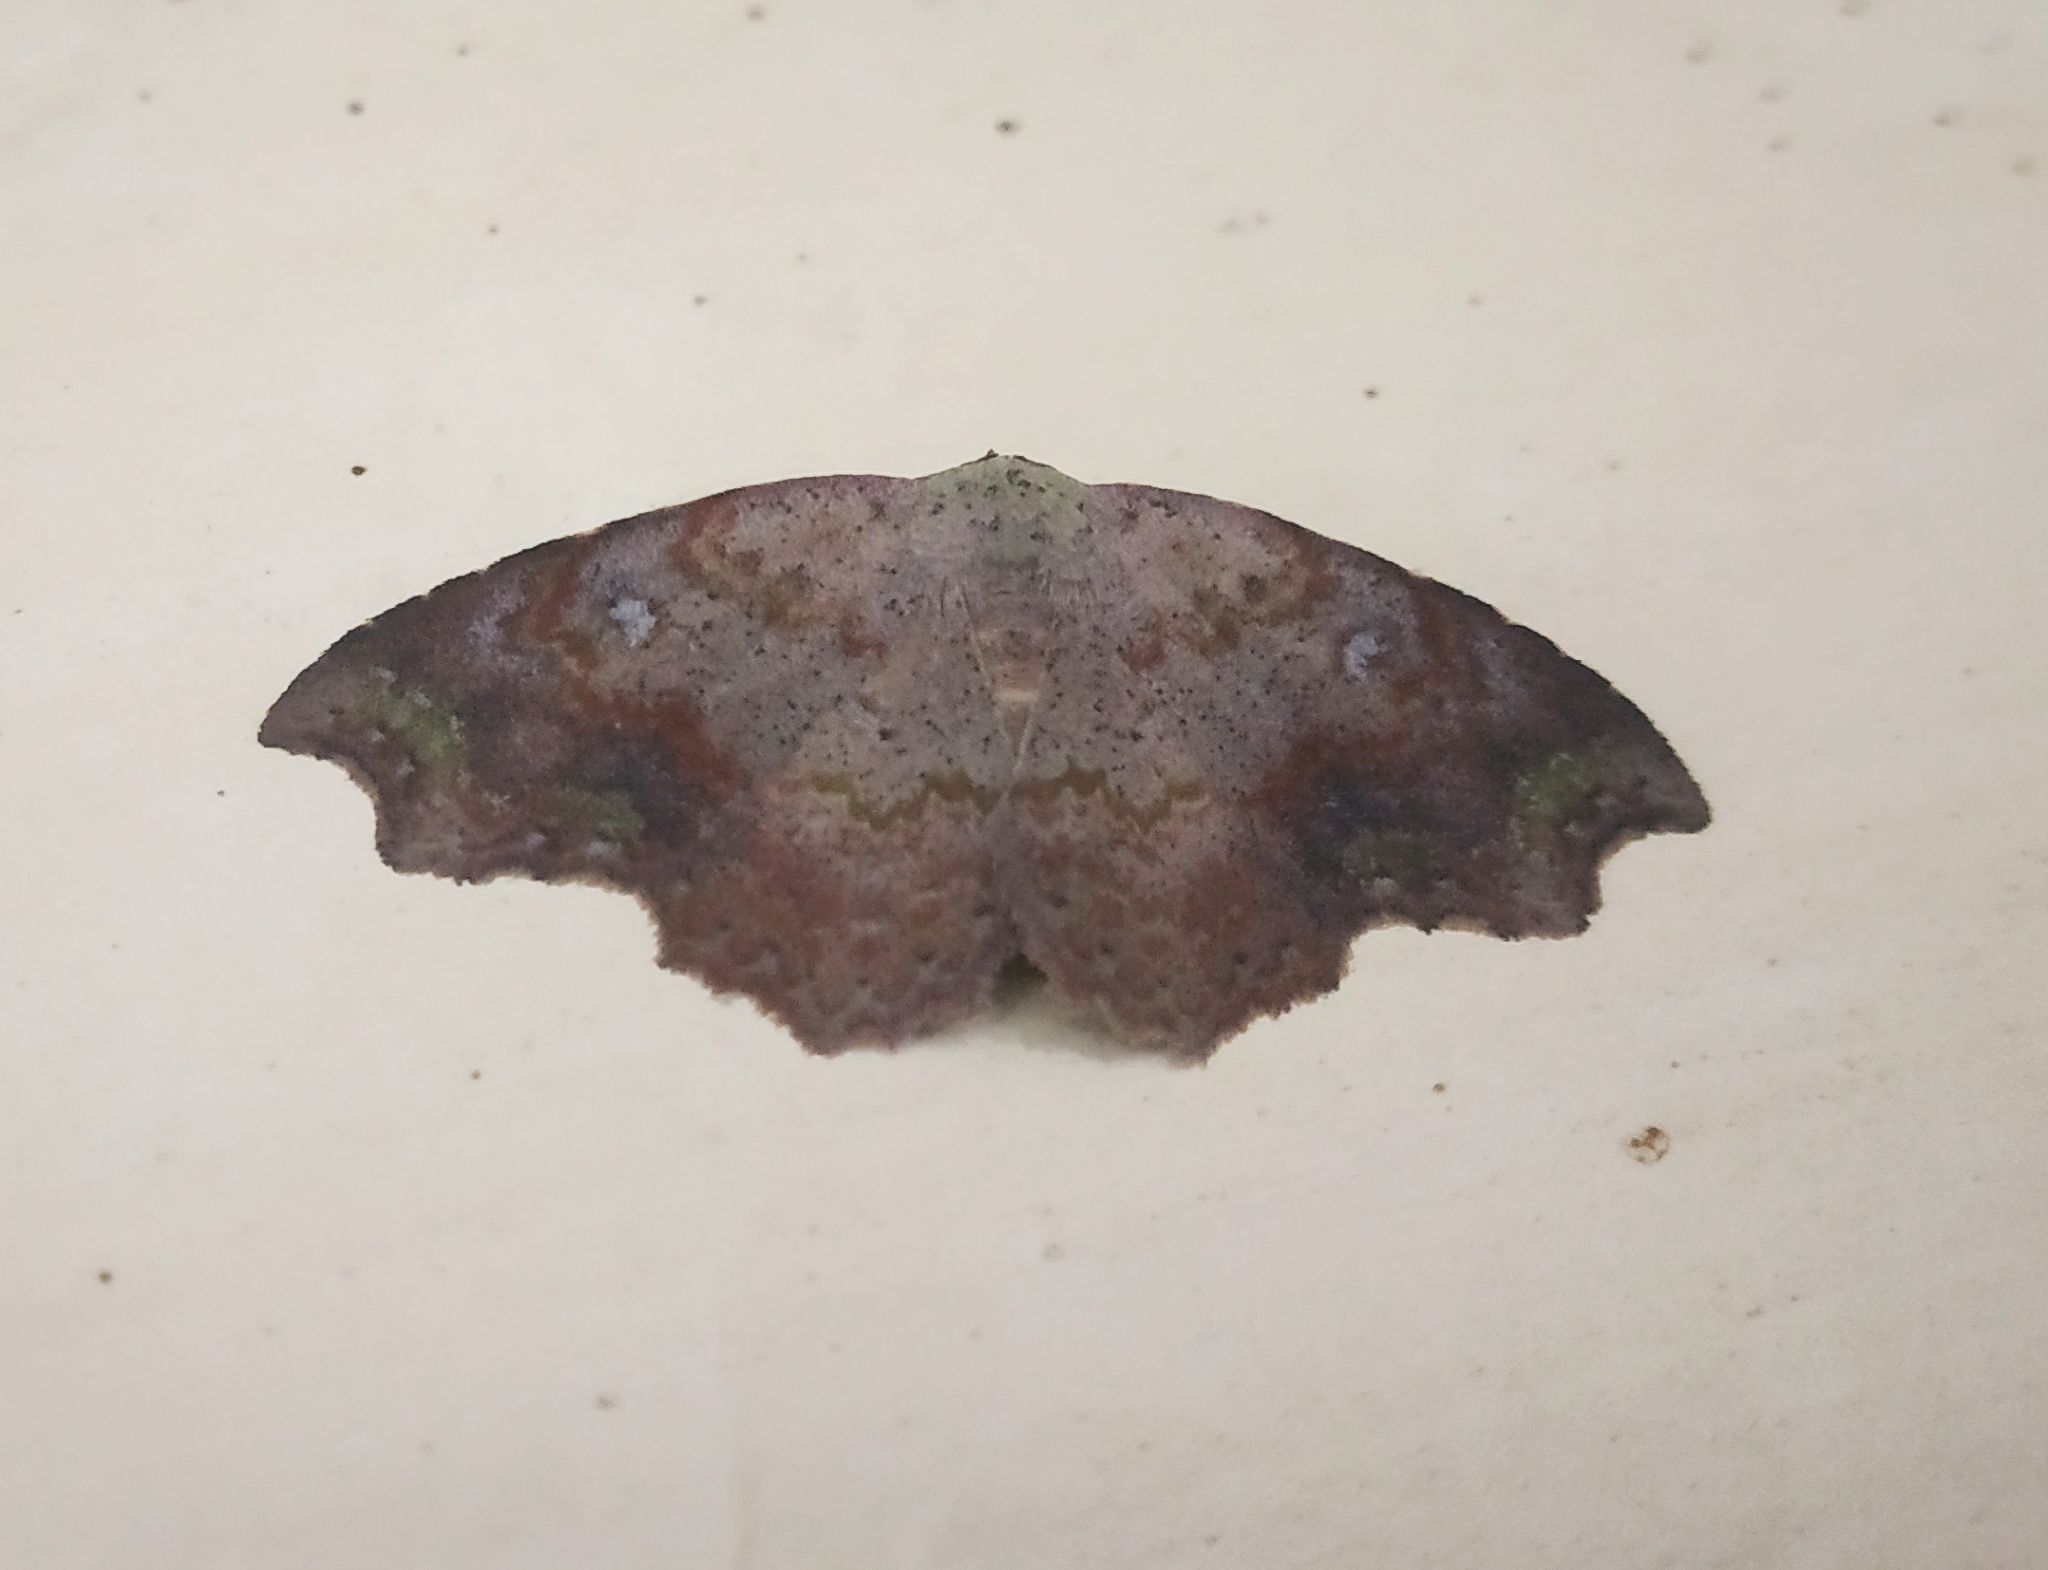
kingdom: Animalia
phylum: Arthropoda
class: Insecta
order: Lepidoptera
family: Erebidae
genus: Laspeyria
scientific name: Laspeyria viridicincta
